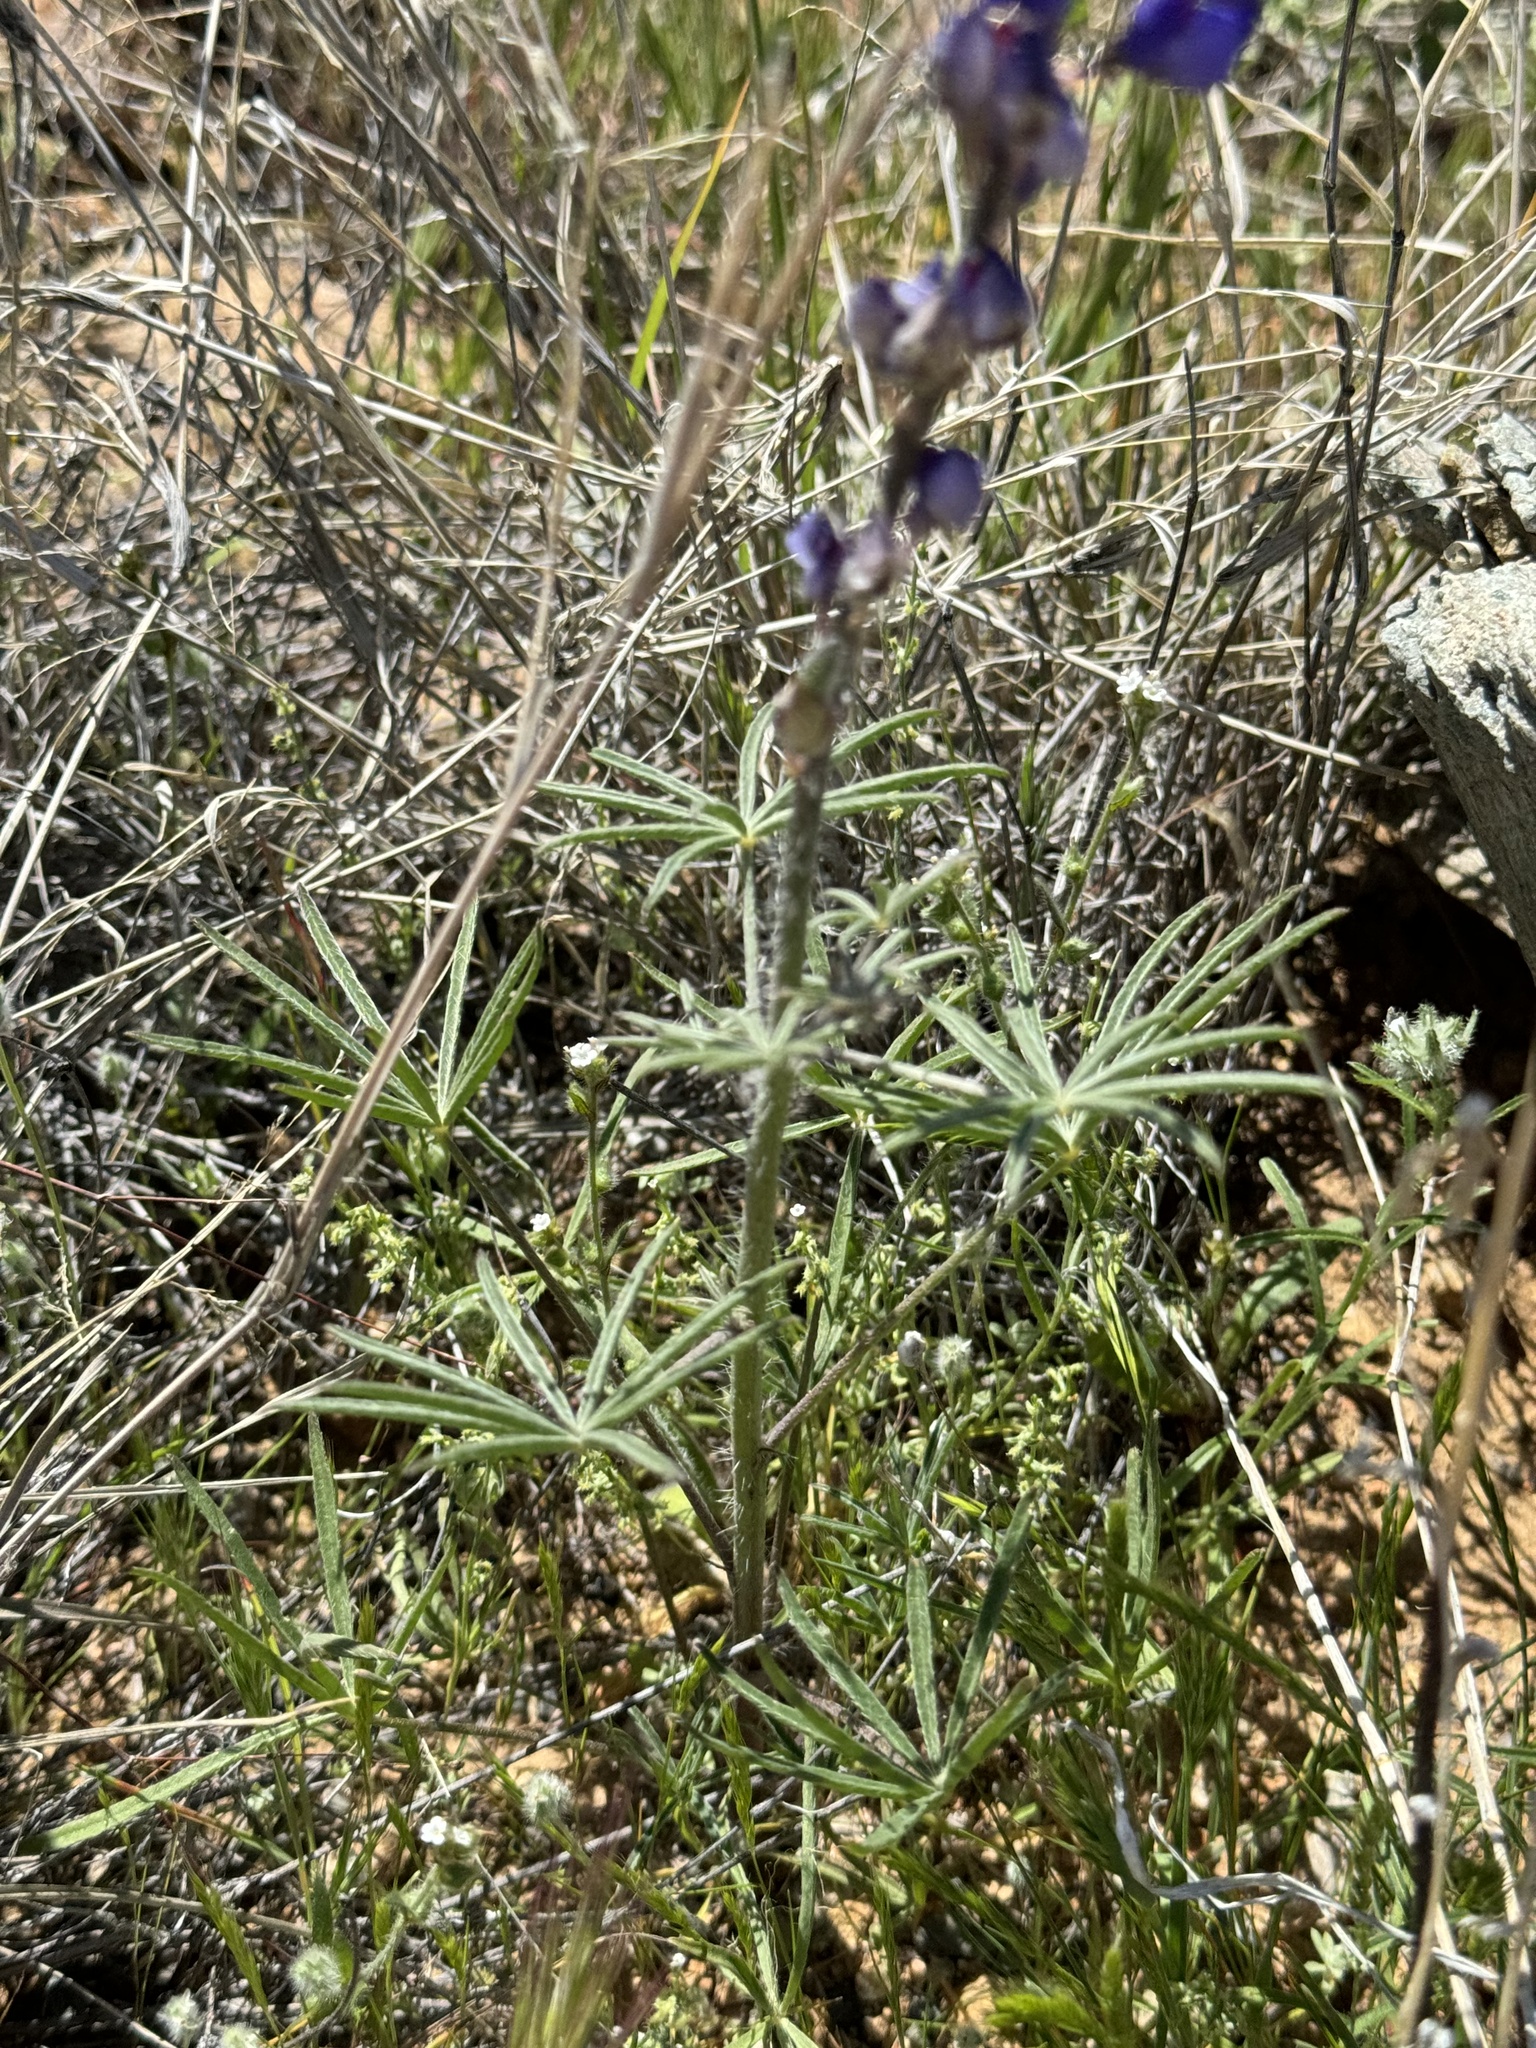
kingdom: Plantae
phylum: Tracheophyta
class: Magnoliopsida
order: Fabales
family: Fabaceae
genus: Lupinus
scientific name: Lupinus sparsiflorus
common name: Coulter's lupine
